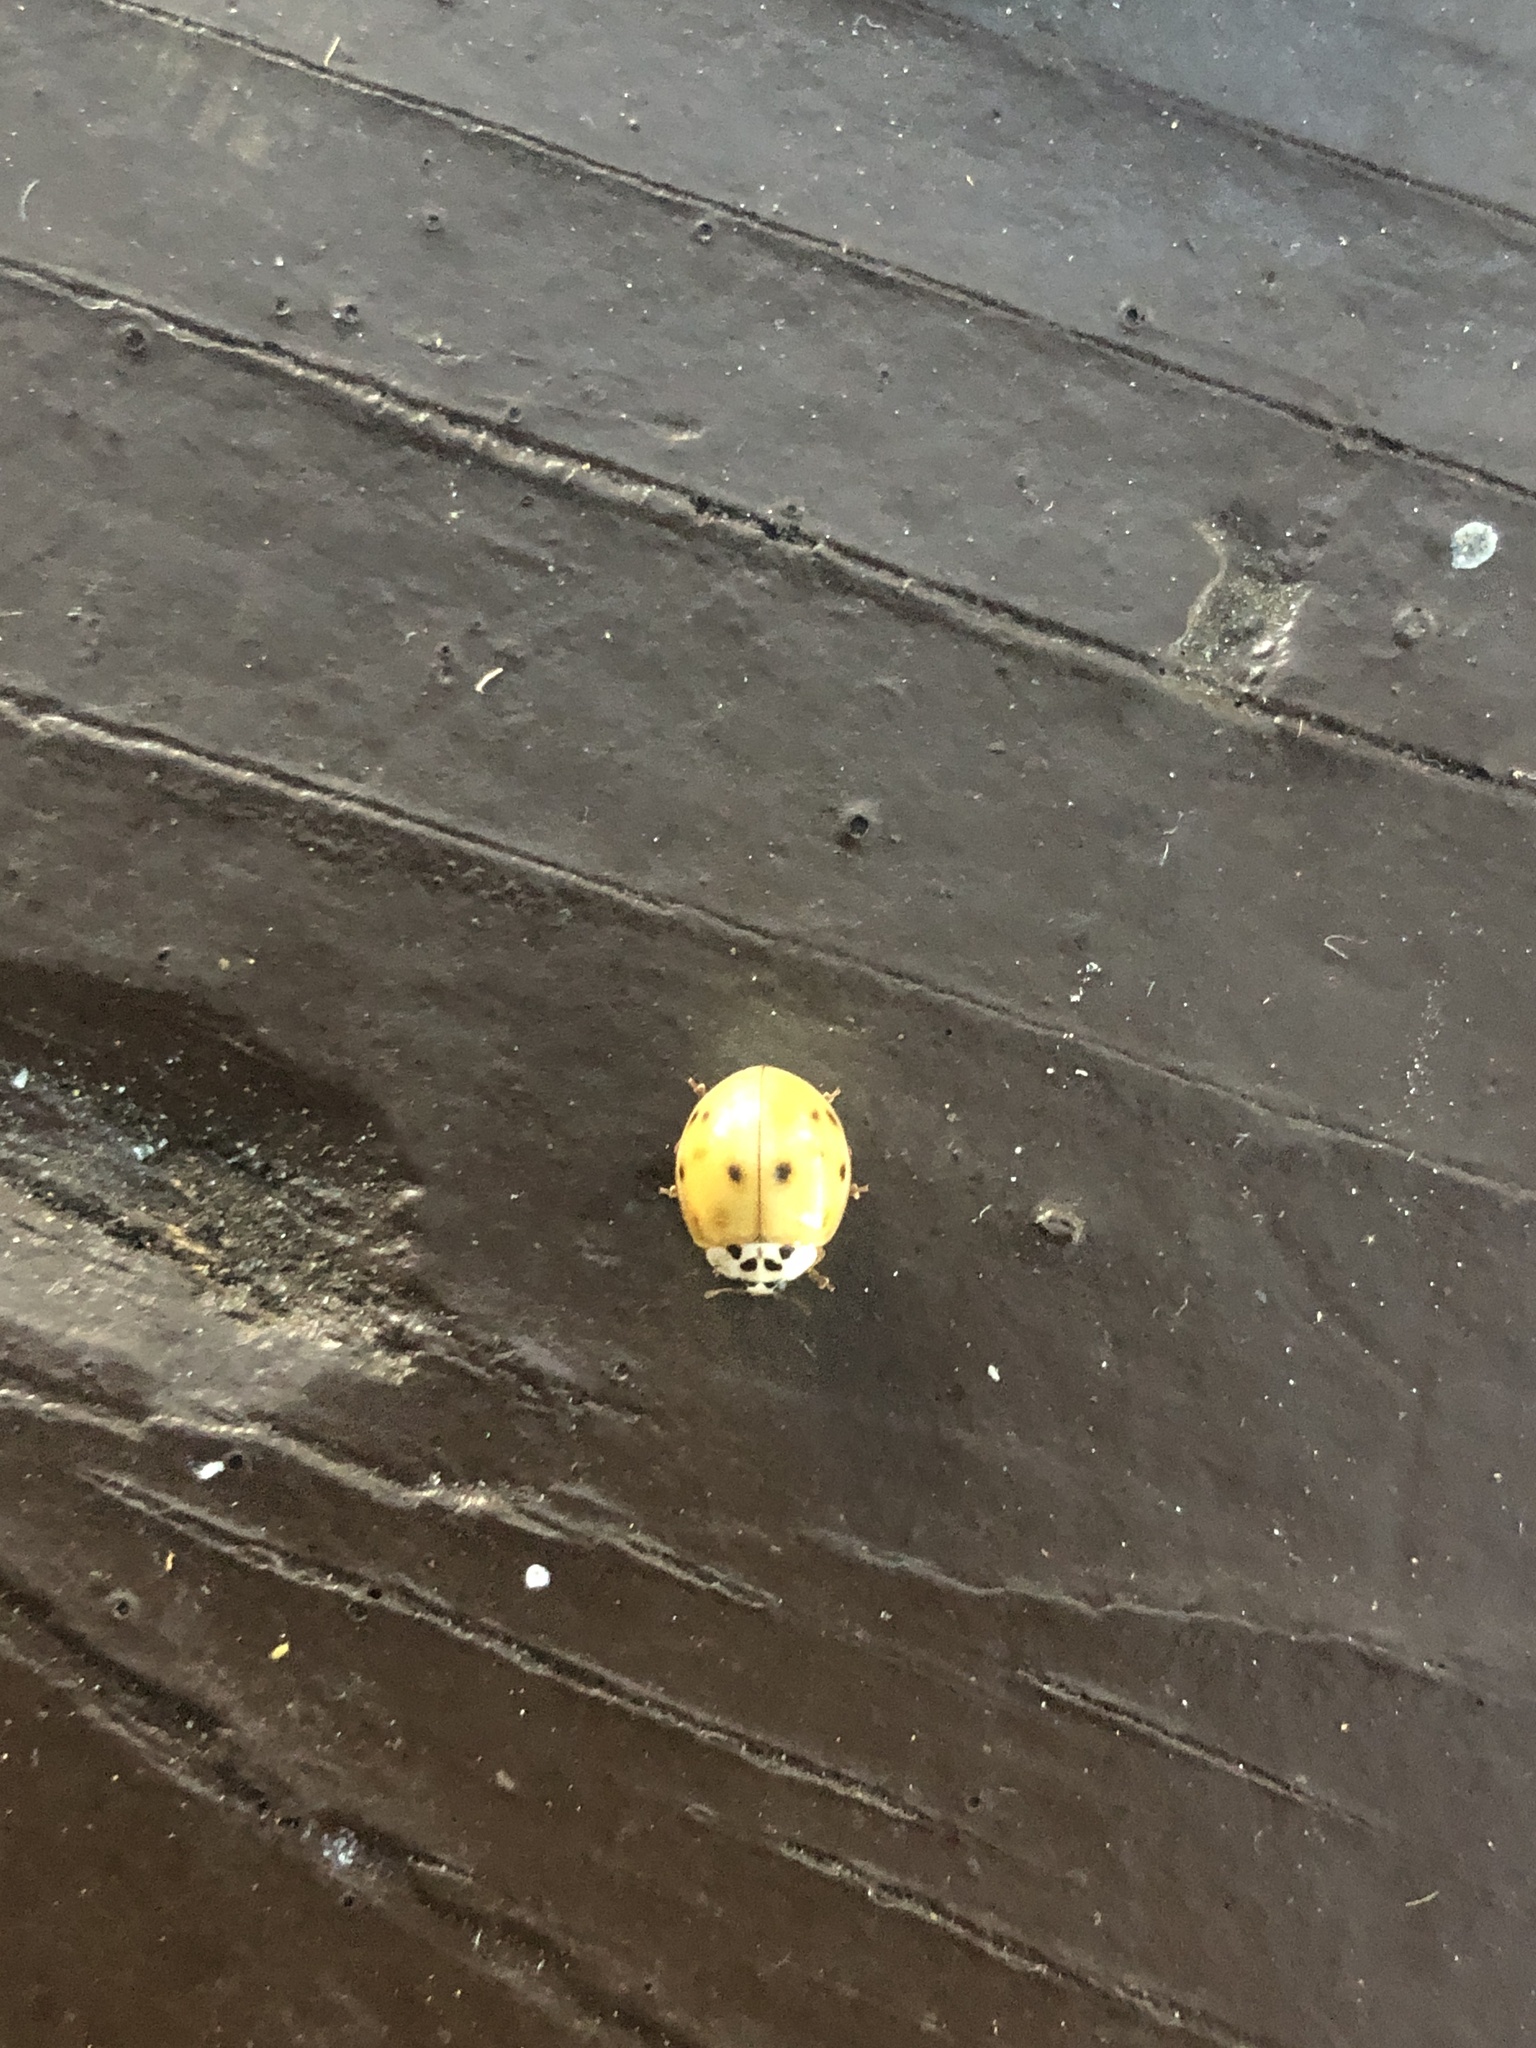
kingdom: Animalia
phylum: Arthropoda
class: Insecta
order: Coleoptera
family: Coccinellidae
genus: Harmonia
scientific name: Harmonia axyridis
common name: Harlequin ladybird
